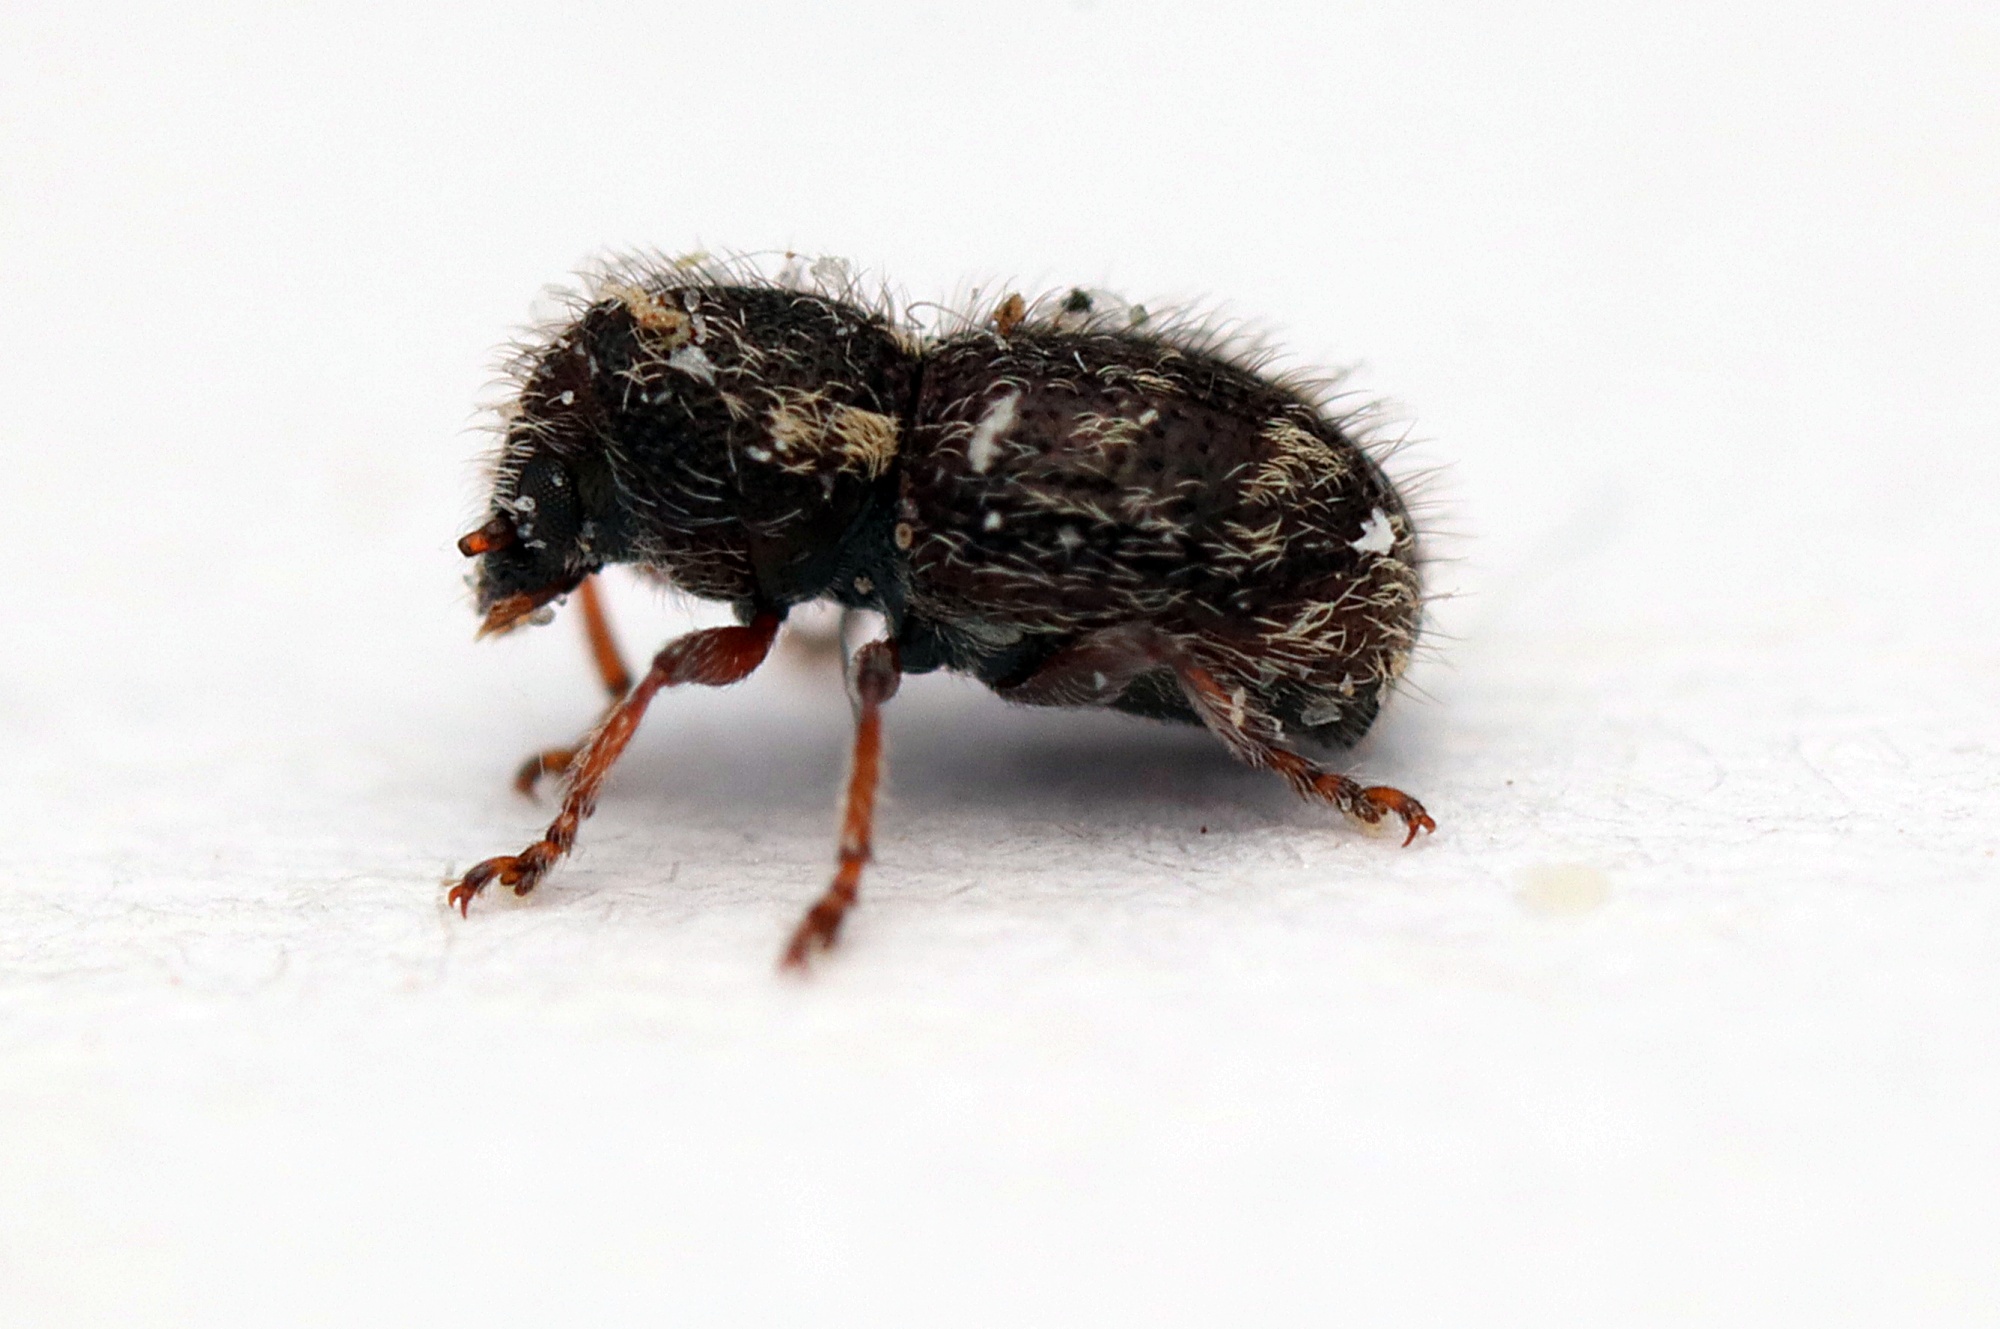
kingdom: Animalia
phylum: Arthropoda
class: Insecta
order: Coleoptera
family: Anthribidae
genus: Dasyanthribus
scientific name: Dasyanthribus purpureus
